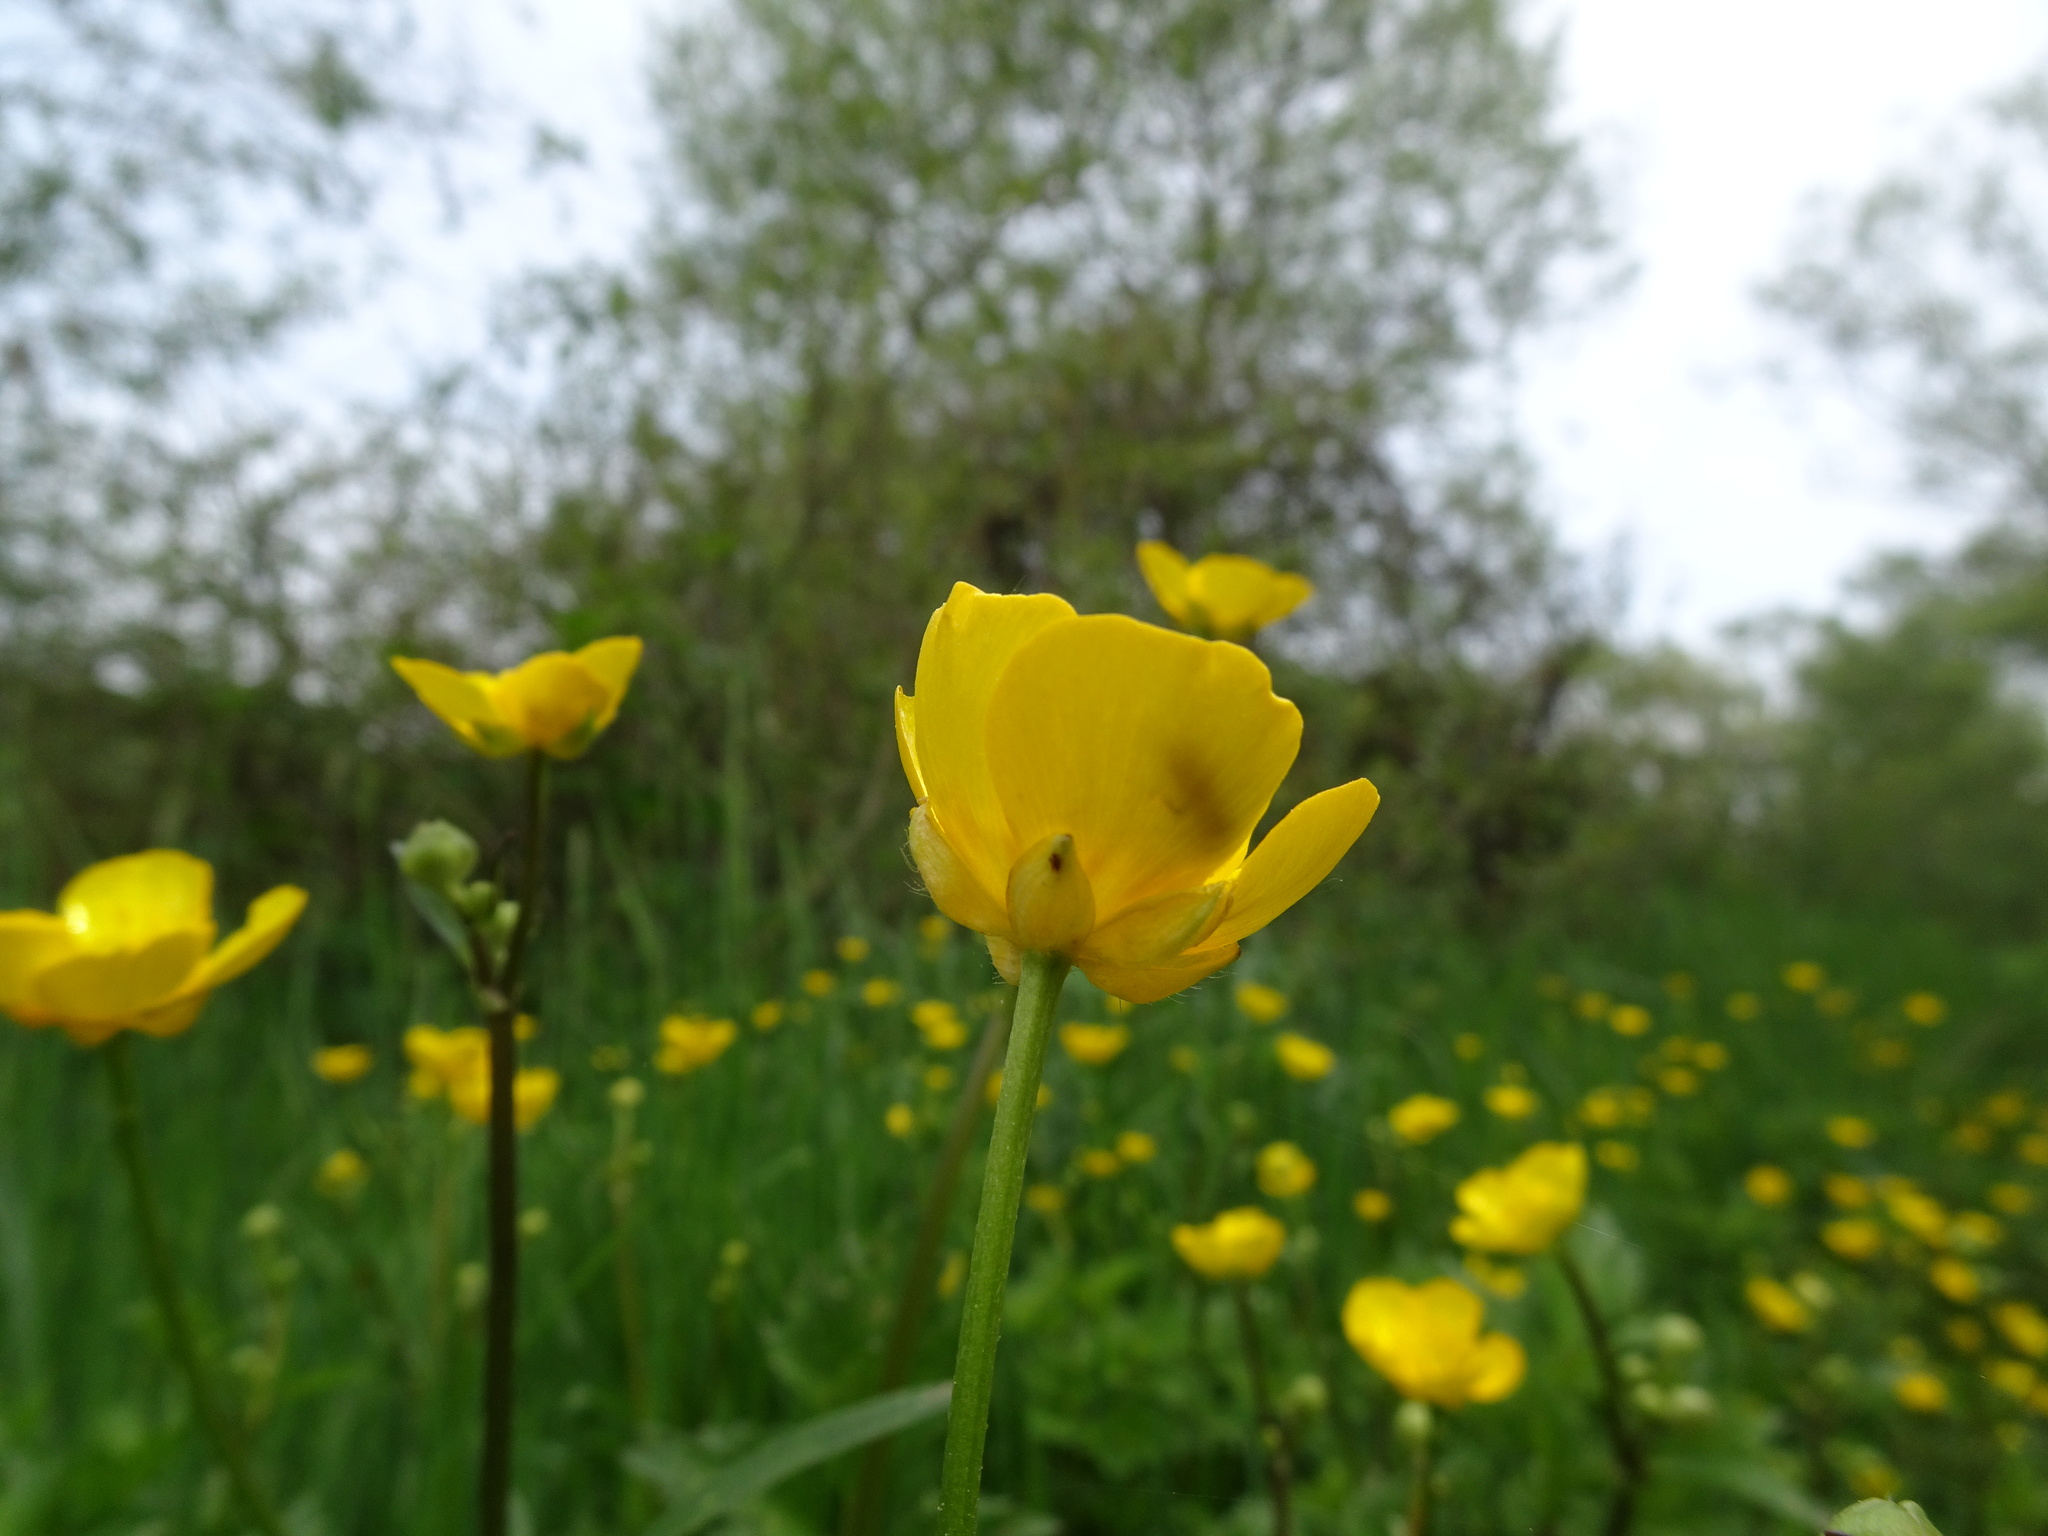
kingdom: Plantae
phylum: Tracheophyta
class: Magnoliopsida
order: Ranunculales
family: Ranunculaceae
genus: Ranunculus
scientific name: Ranunculus repens
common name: Creeping buttercup
